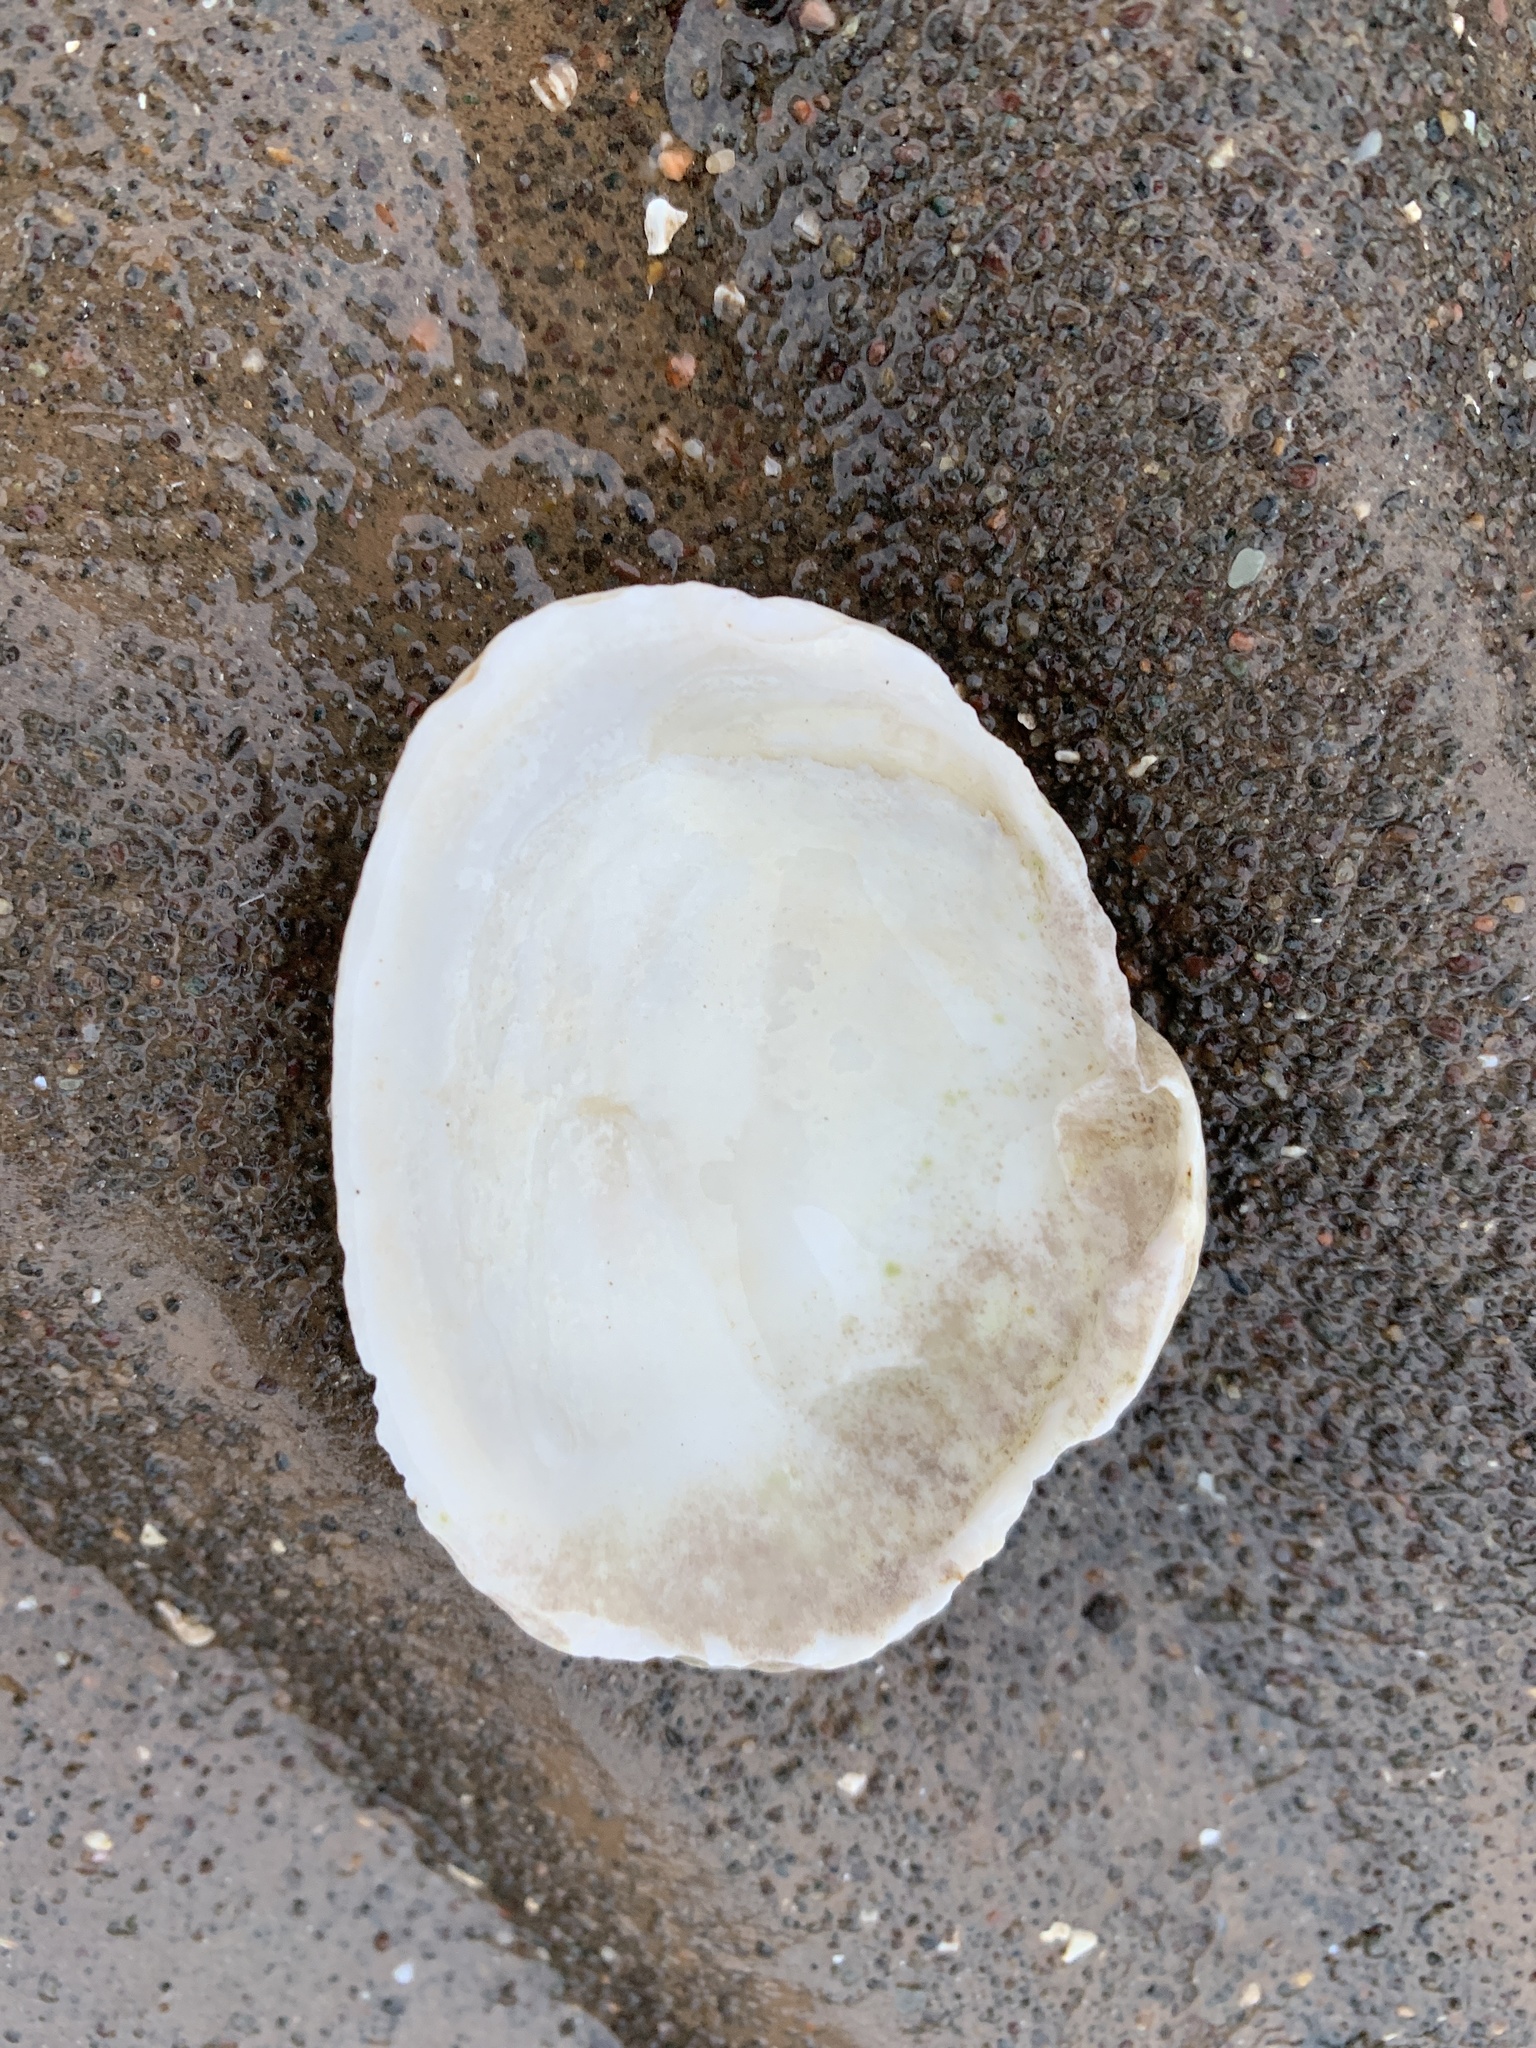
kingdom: Animalia
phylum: Mollusca
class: Bivalvia
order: Myida
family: Myidae
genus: Mya
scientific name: Mya arenaria
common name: Soft-shelled clam
